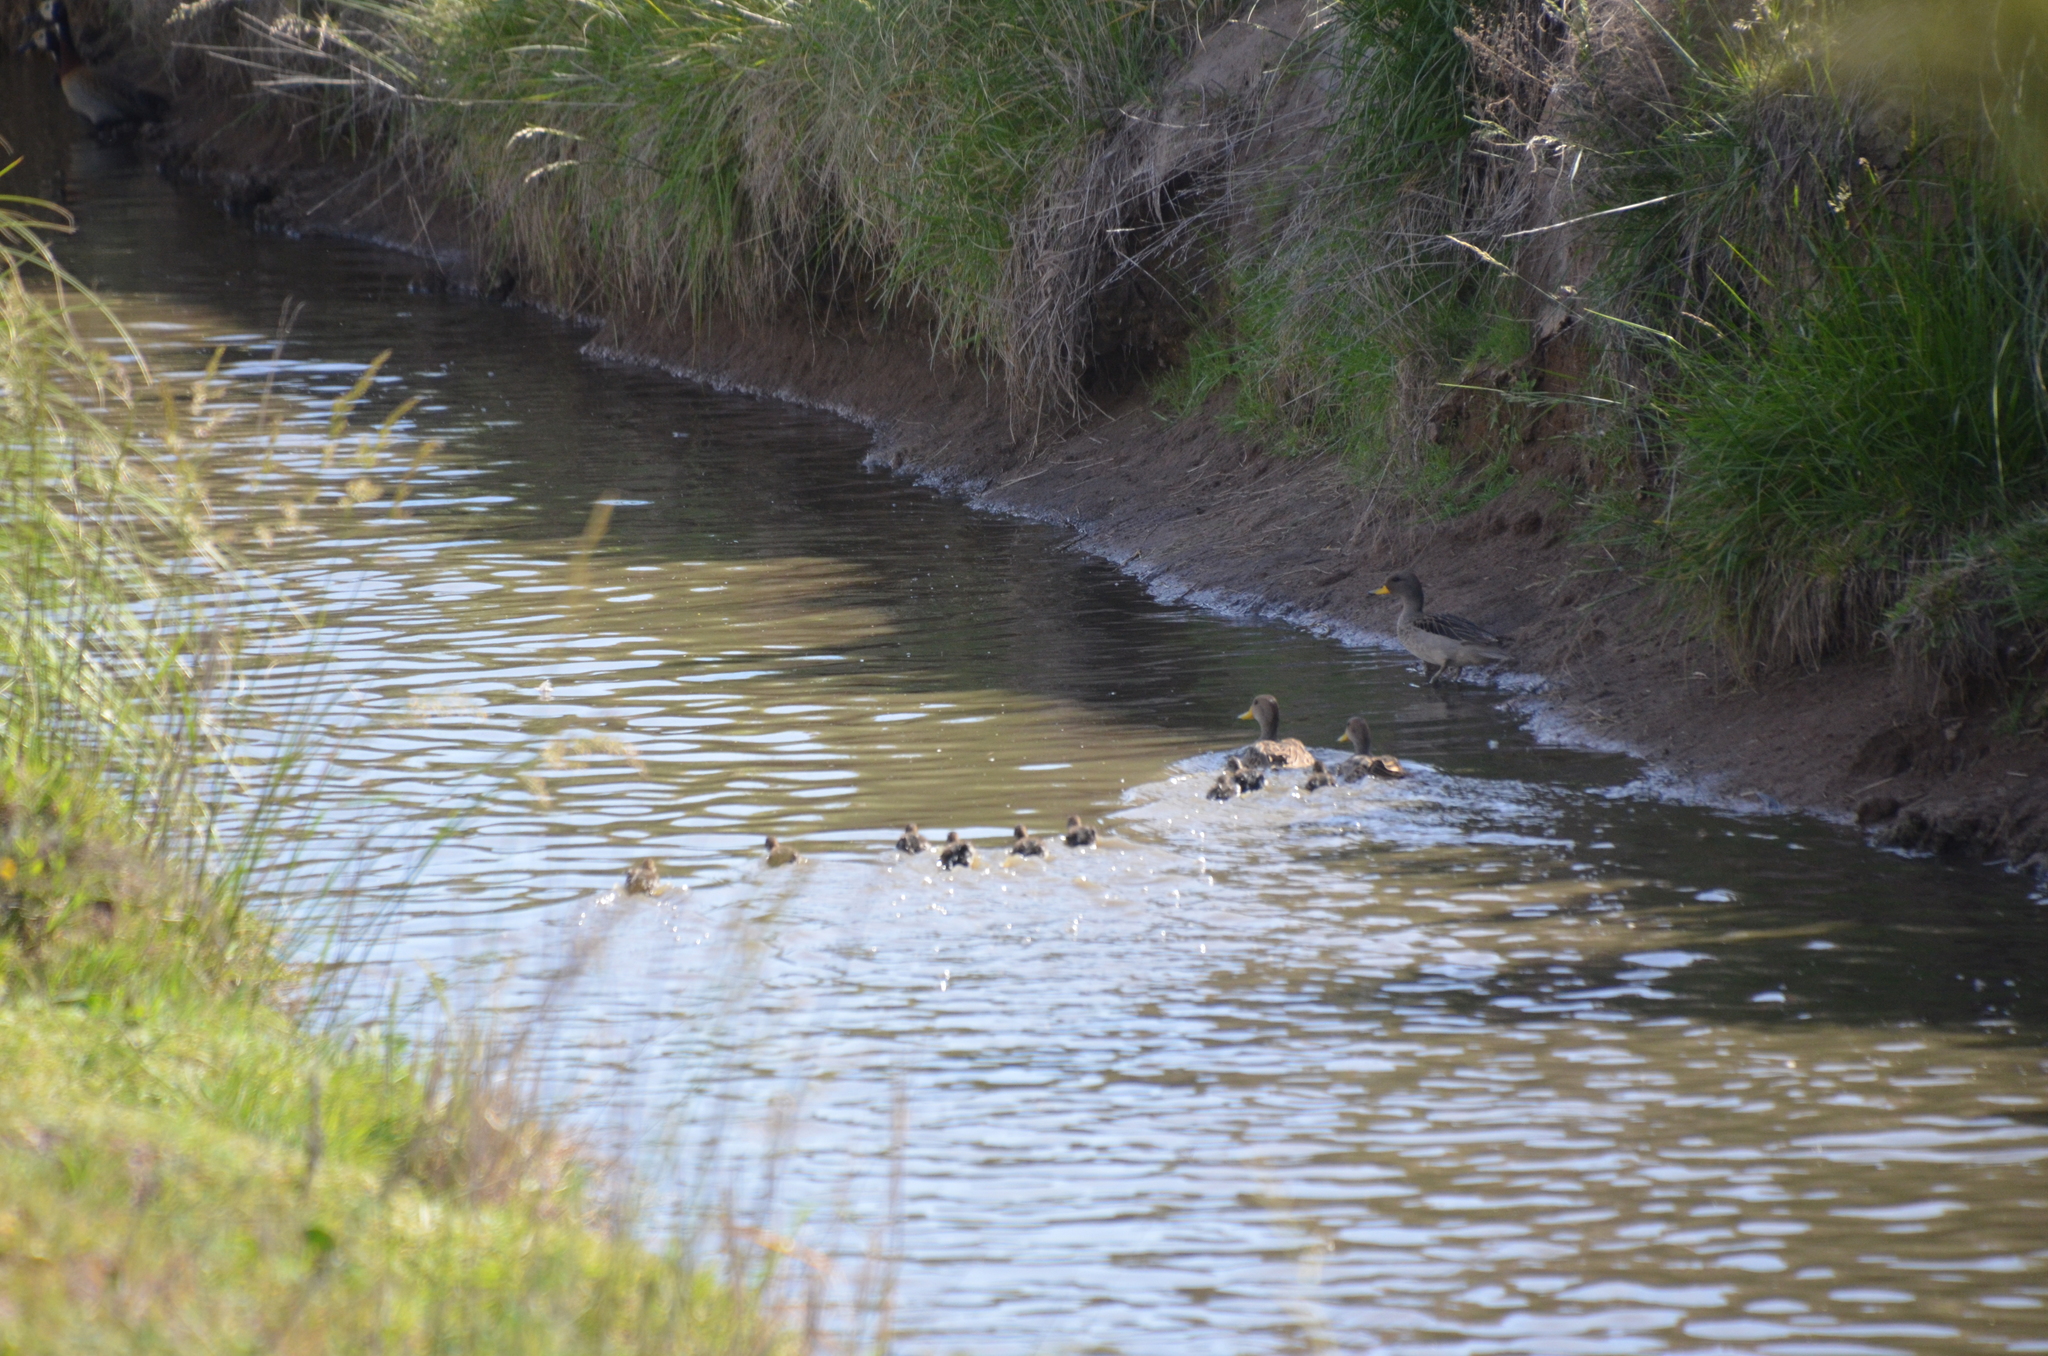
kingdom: Animalia
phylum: Chordata
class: Aves
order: Anseriformes
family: Anatidae
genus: Anas
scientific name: Anas georgica
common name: Yellow-billed pintail
